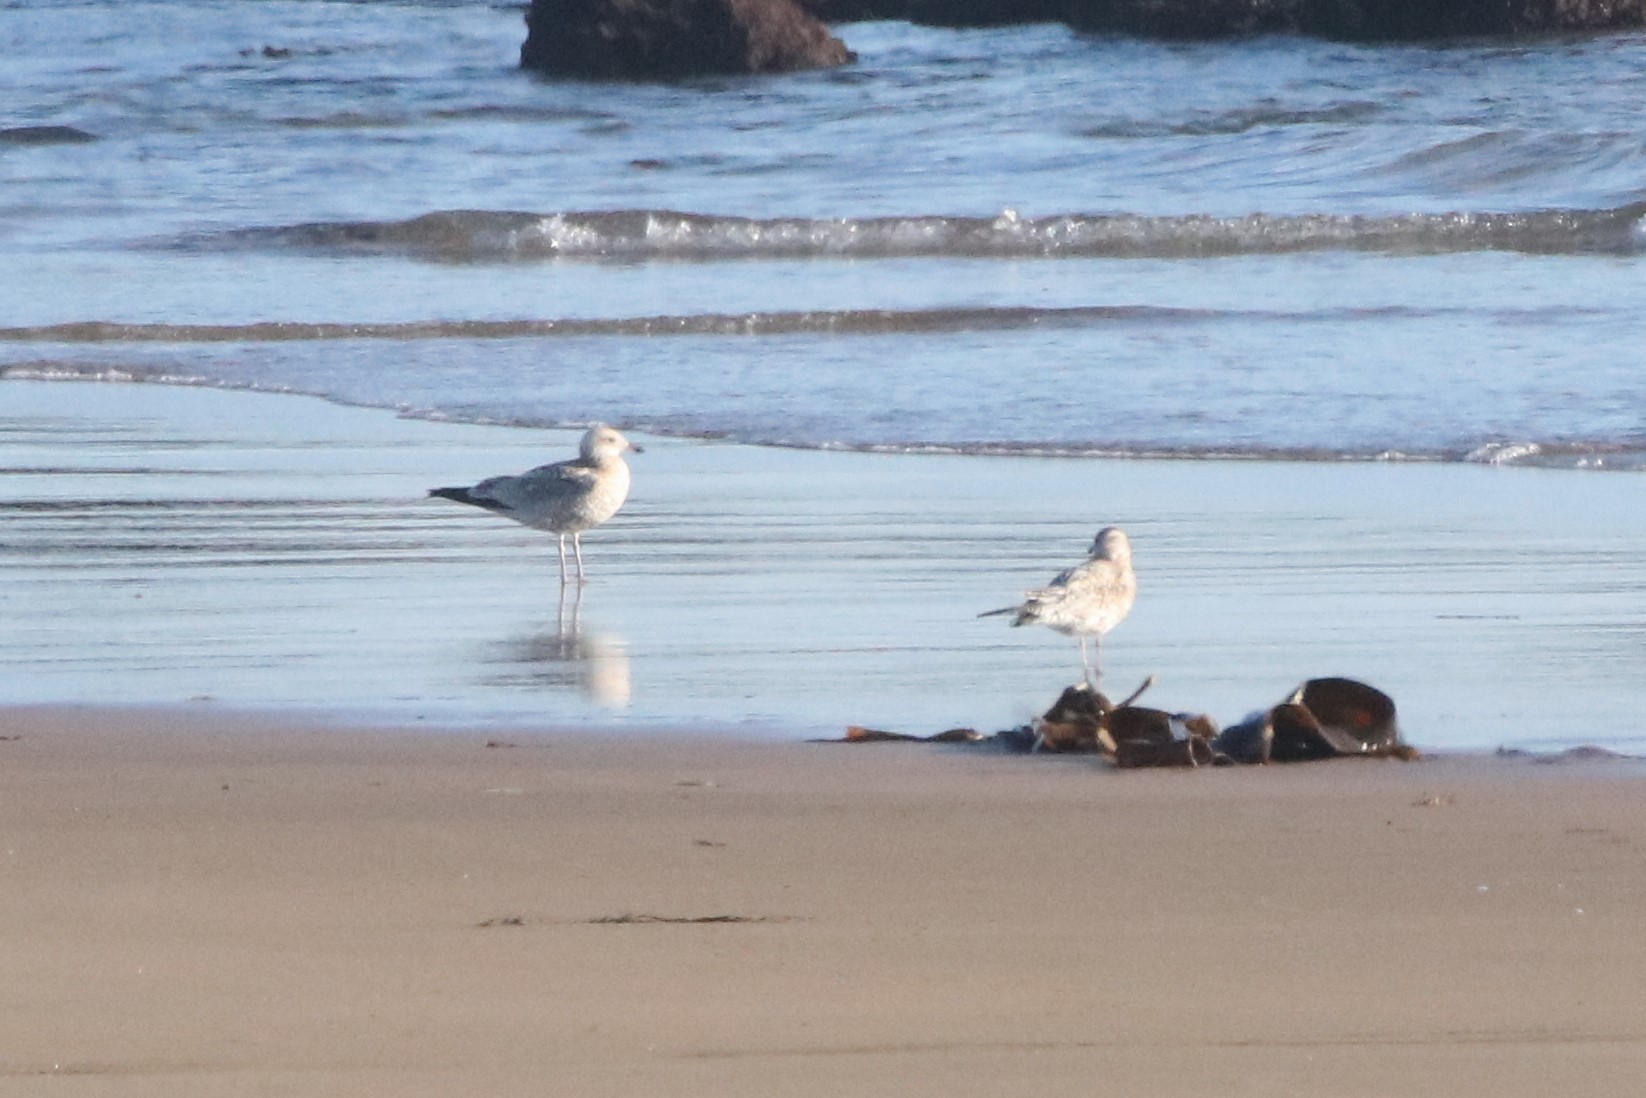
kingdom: Animalia
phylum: Chordata
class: Aves
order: Charadriiformes
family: Laridae
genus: Larus
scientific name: Larus delawarensis
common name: Ring-billed gull
